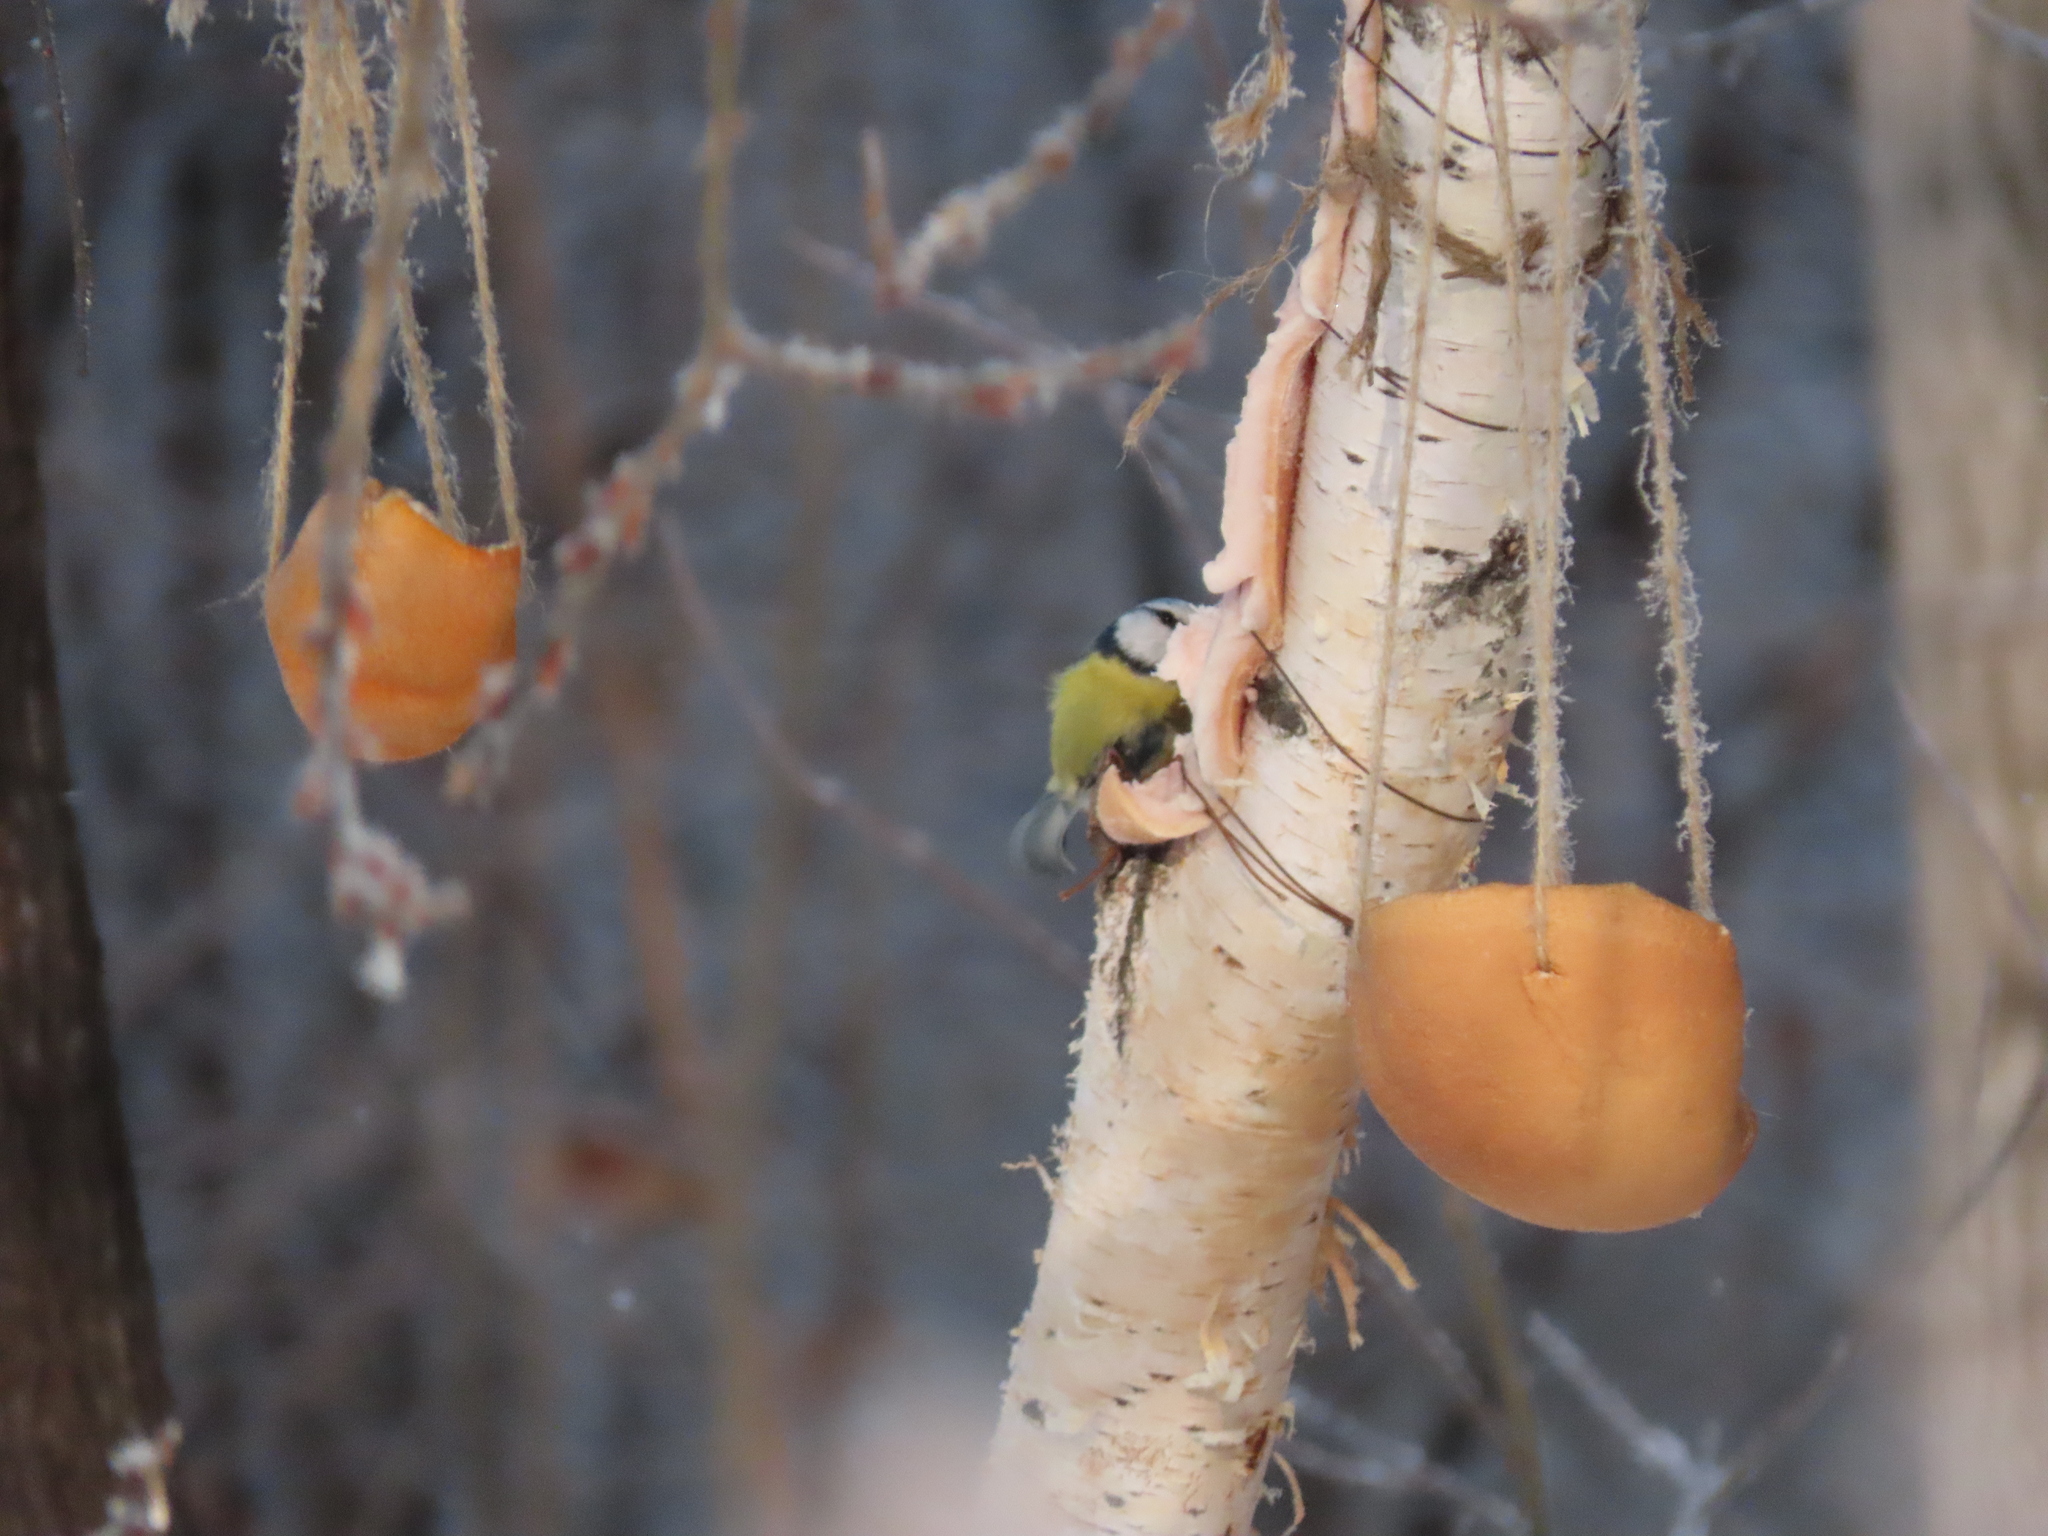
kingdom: Animalia
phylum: Chordata
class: Aves
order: Passeriformes
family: Paridae
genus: Cyanistes
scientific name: Cyanistes caeruleus
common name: Eurasian blue tit
